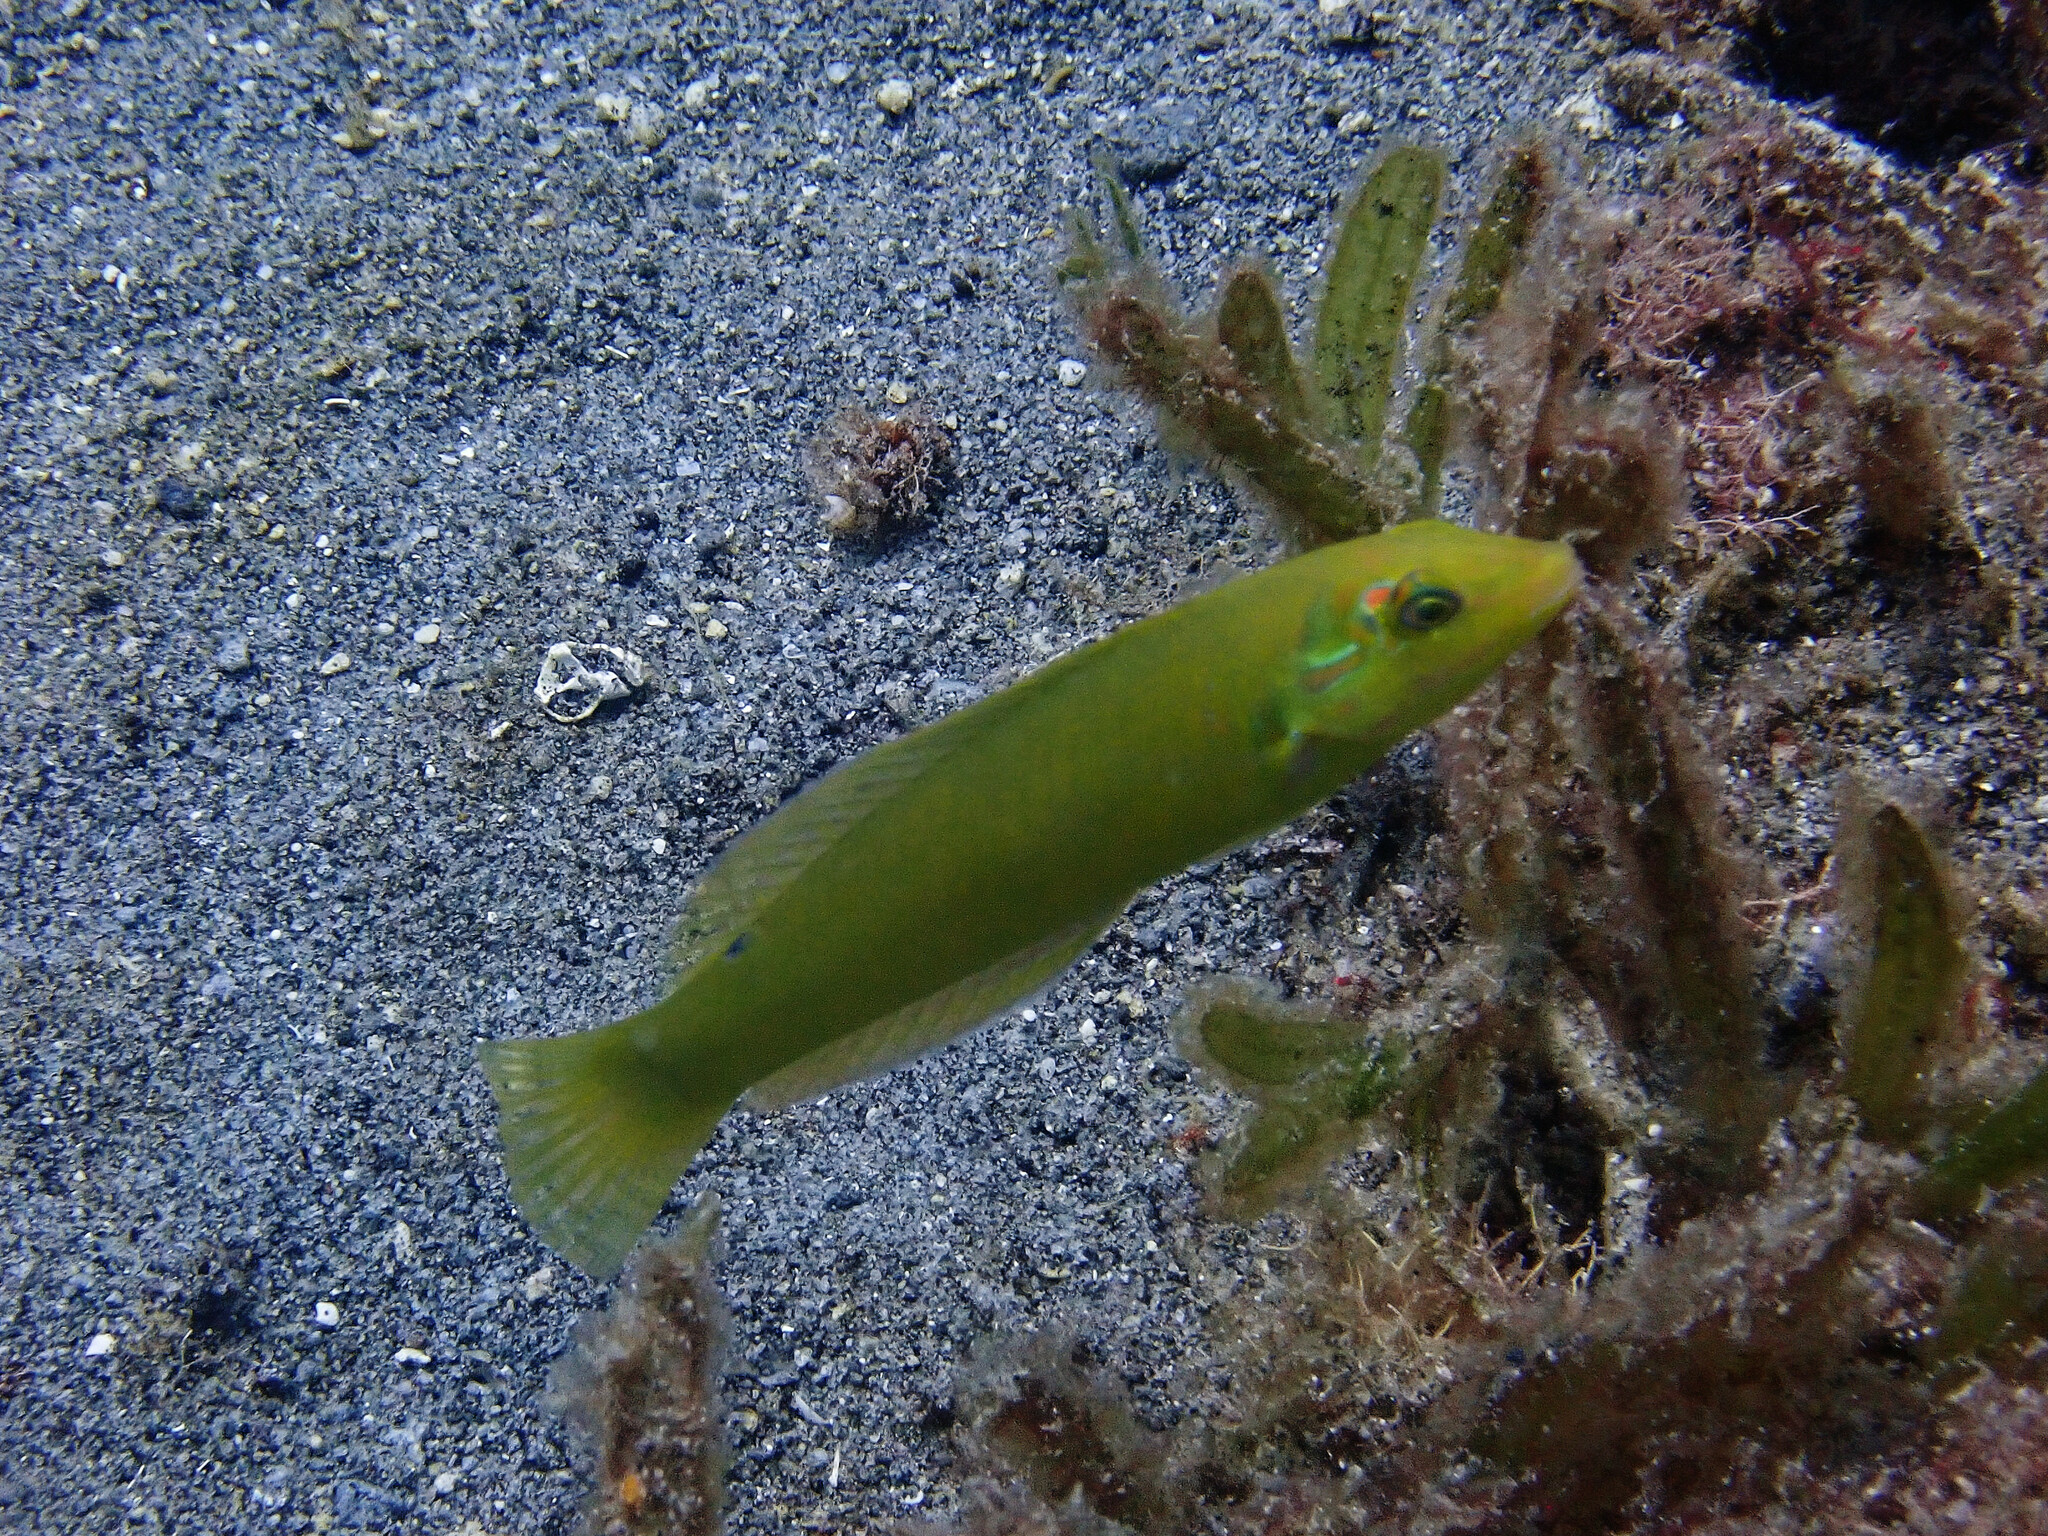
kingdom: Animalia
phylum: Chordata
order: Perciformes
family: Labridae
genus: Halichoeres
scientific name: Halichoeres poeyi
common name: Blackear wrasse
